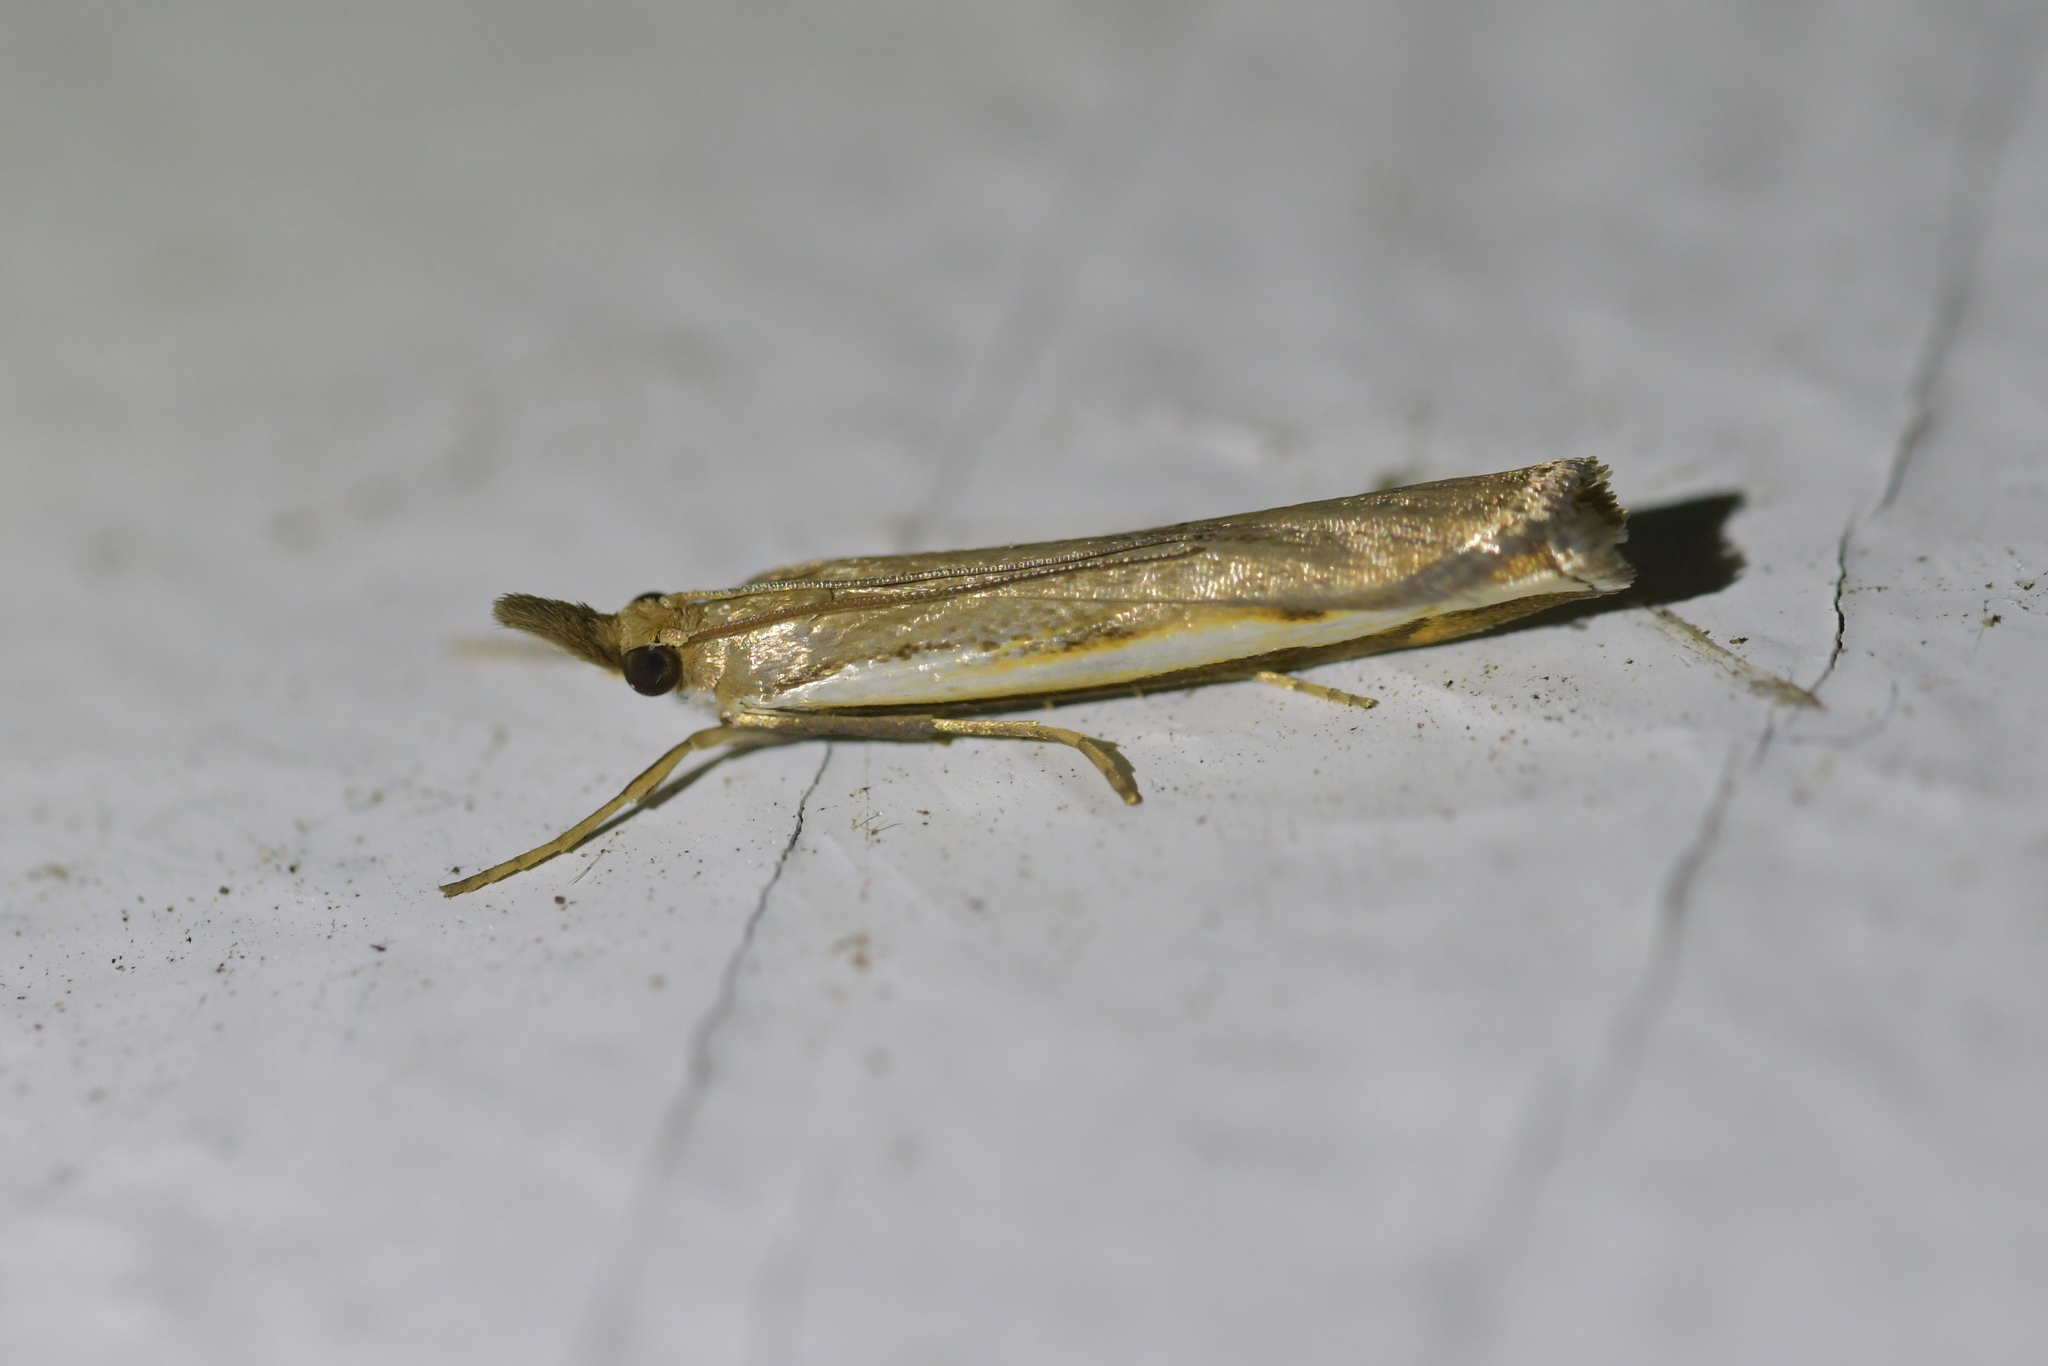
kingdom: Animalia
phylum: Arthropoda
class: Insecta
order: Lepidoptera
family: Crambidae
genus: Orocrambus
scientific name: Orocrambus flexuosellus
